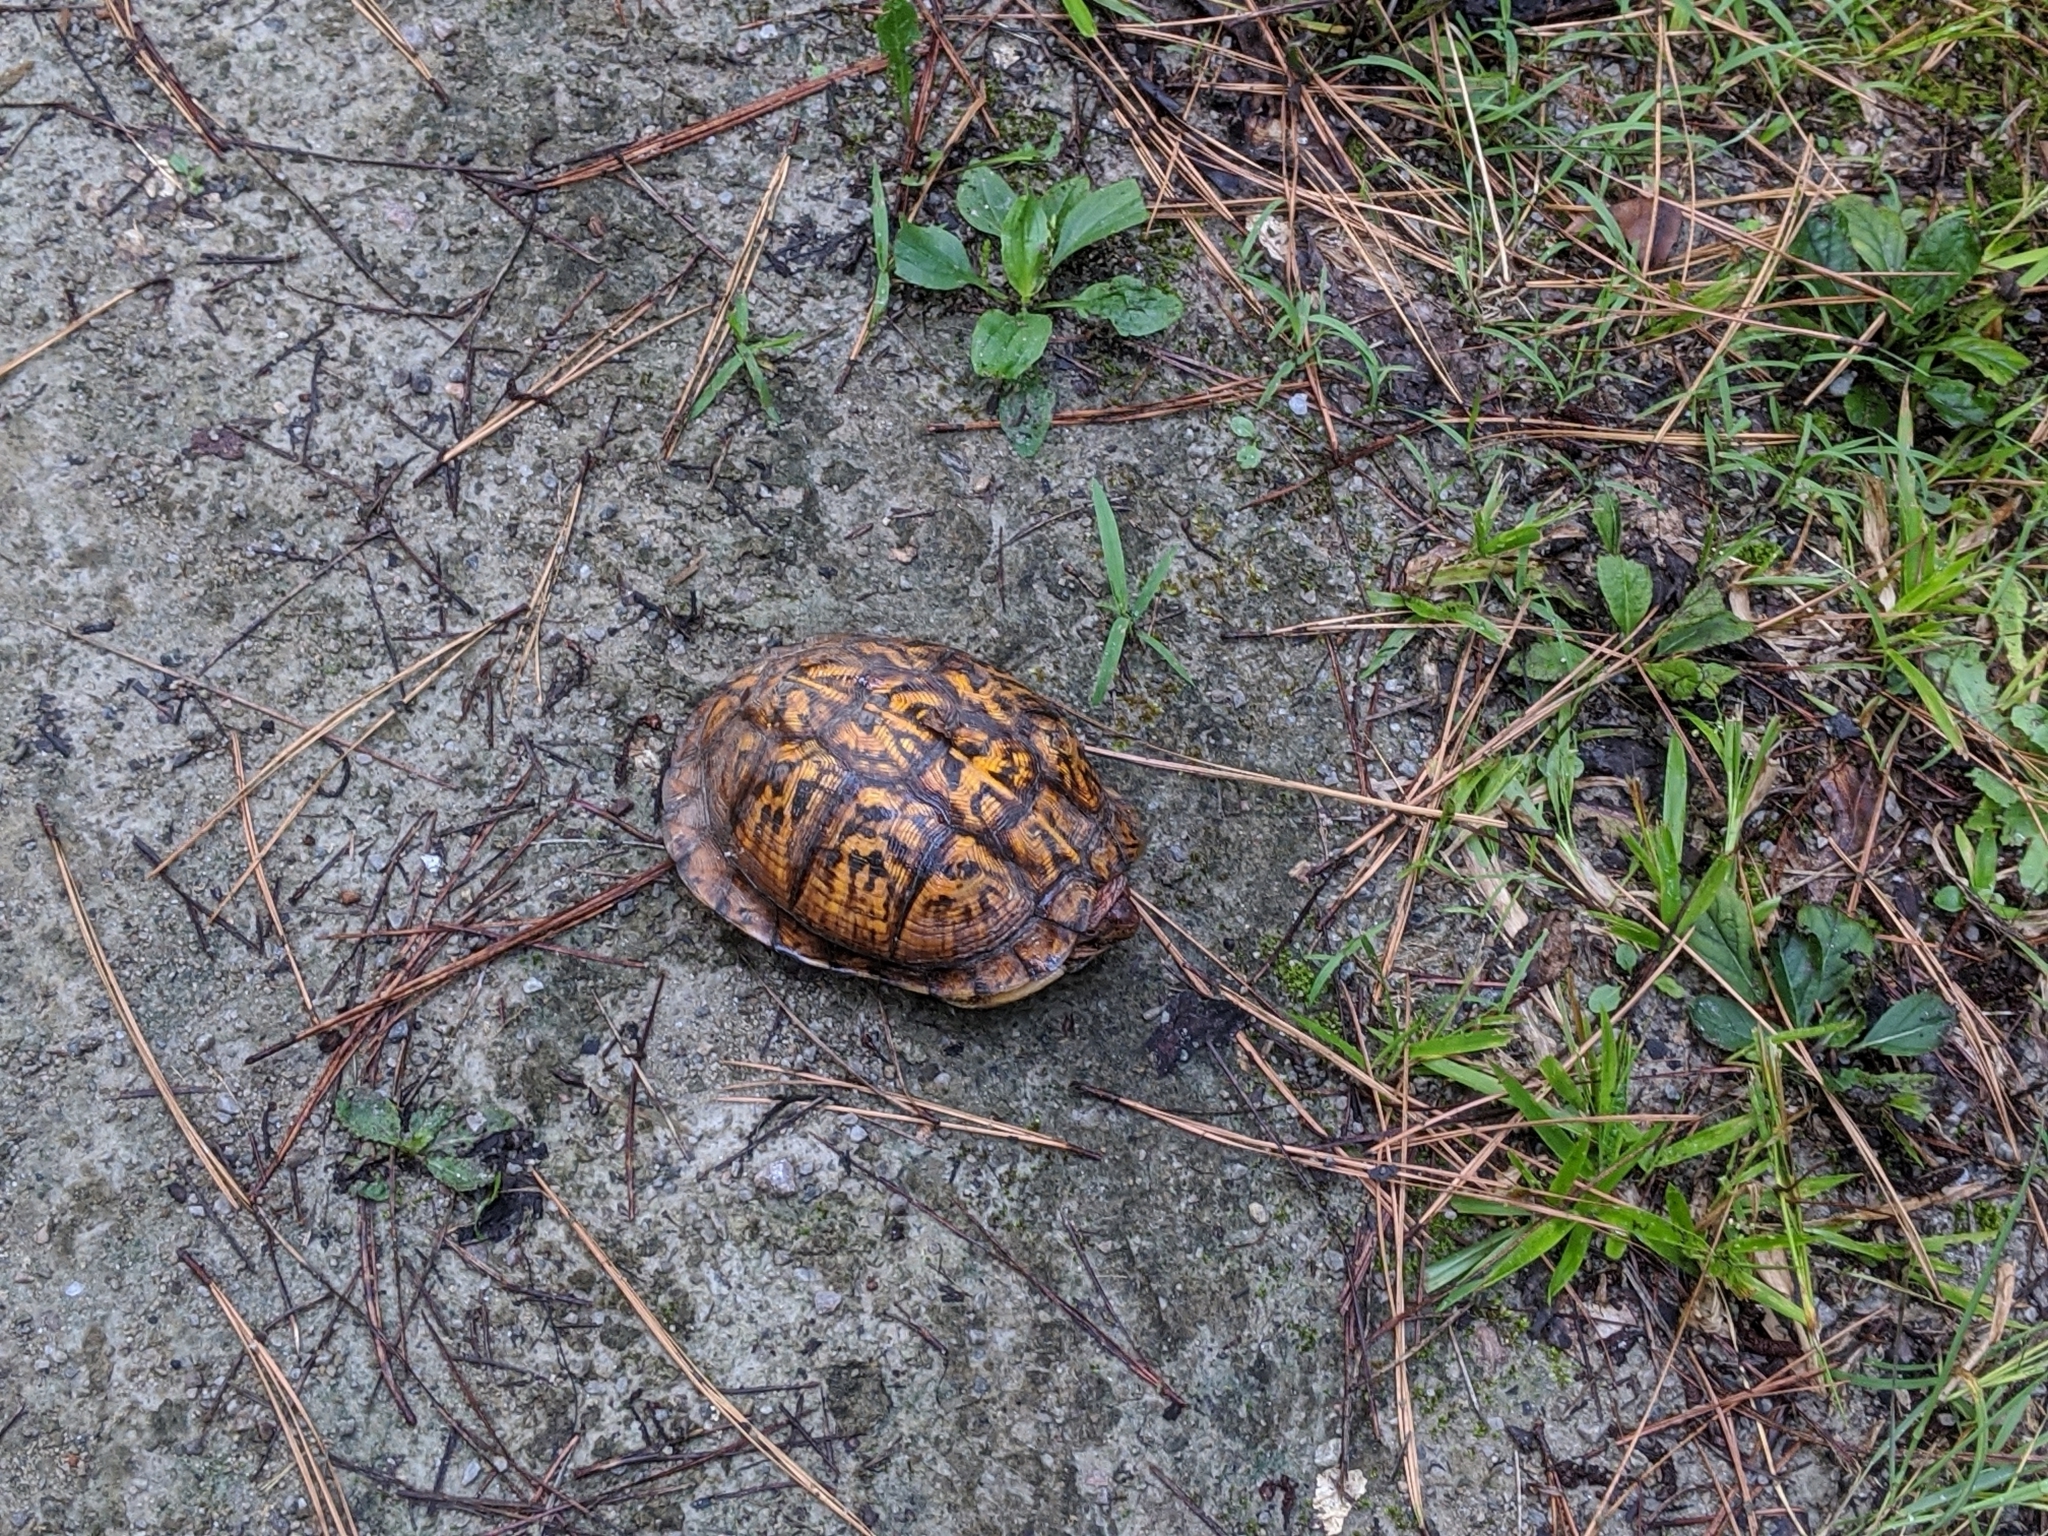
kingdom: Animalia
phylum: Chordata
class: Testudines
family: Emydidae
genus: Terrapene
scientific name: Terrapene carolina
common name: Common box turtle
